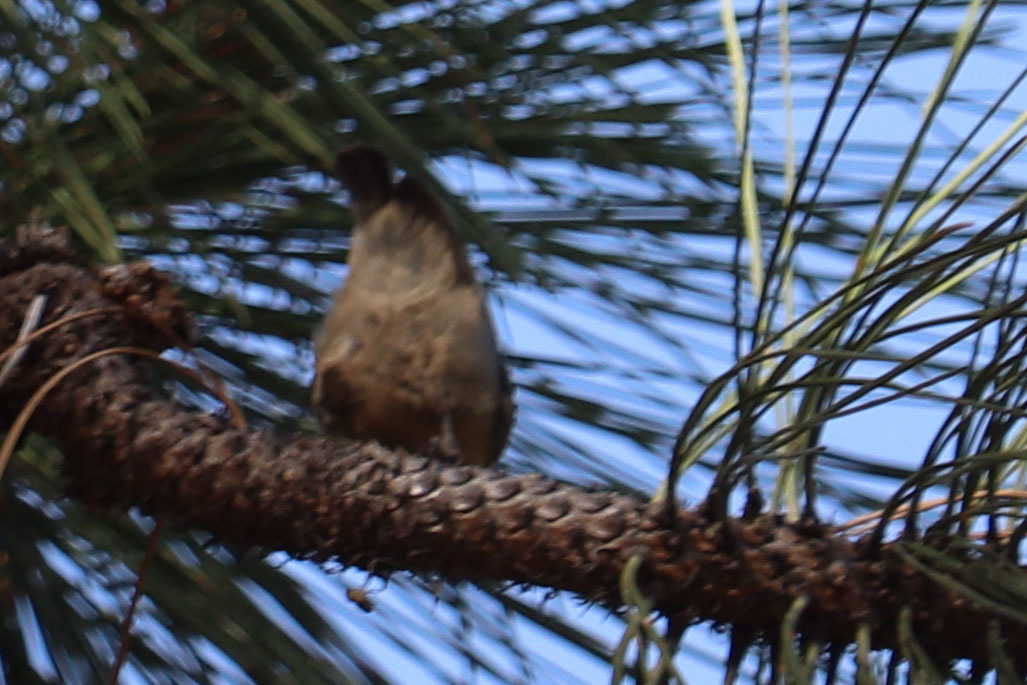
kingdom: Animalia
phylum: Chordata
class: Aves
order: Passeriformes
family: Sittidae
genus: Sitta
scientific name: Sitta pygmaea
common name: Pygmy nuthatch
